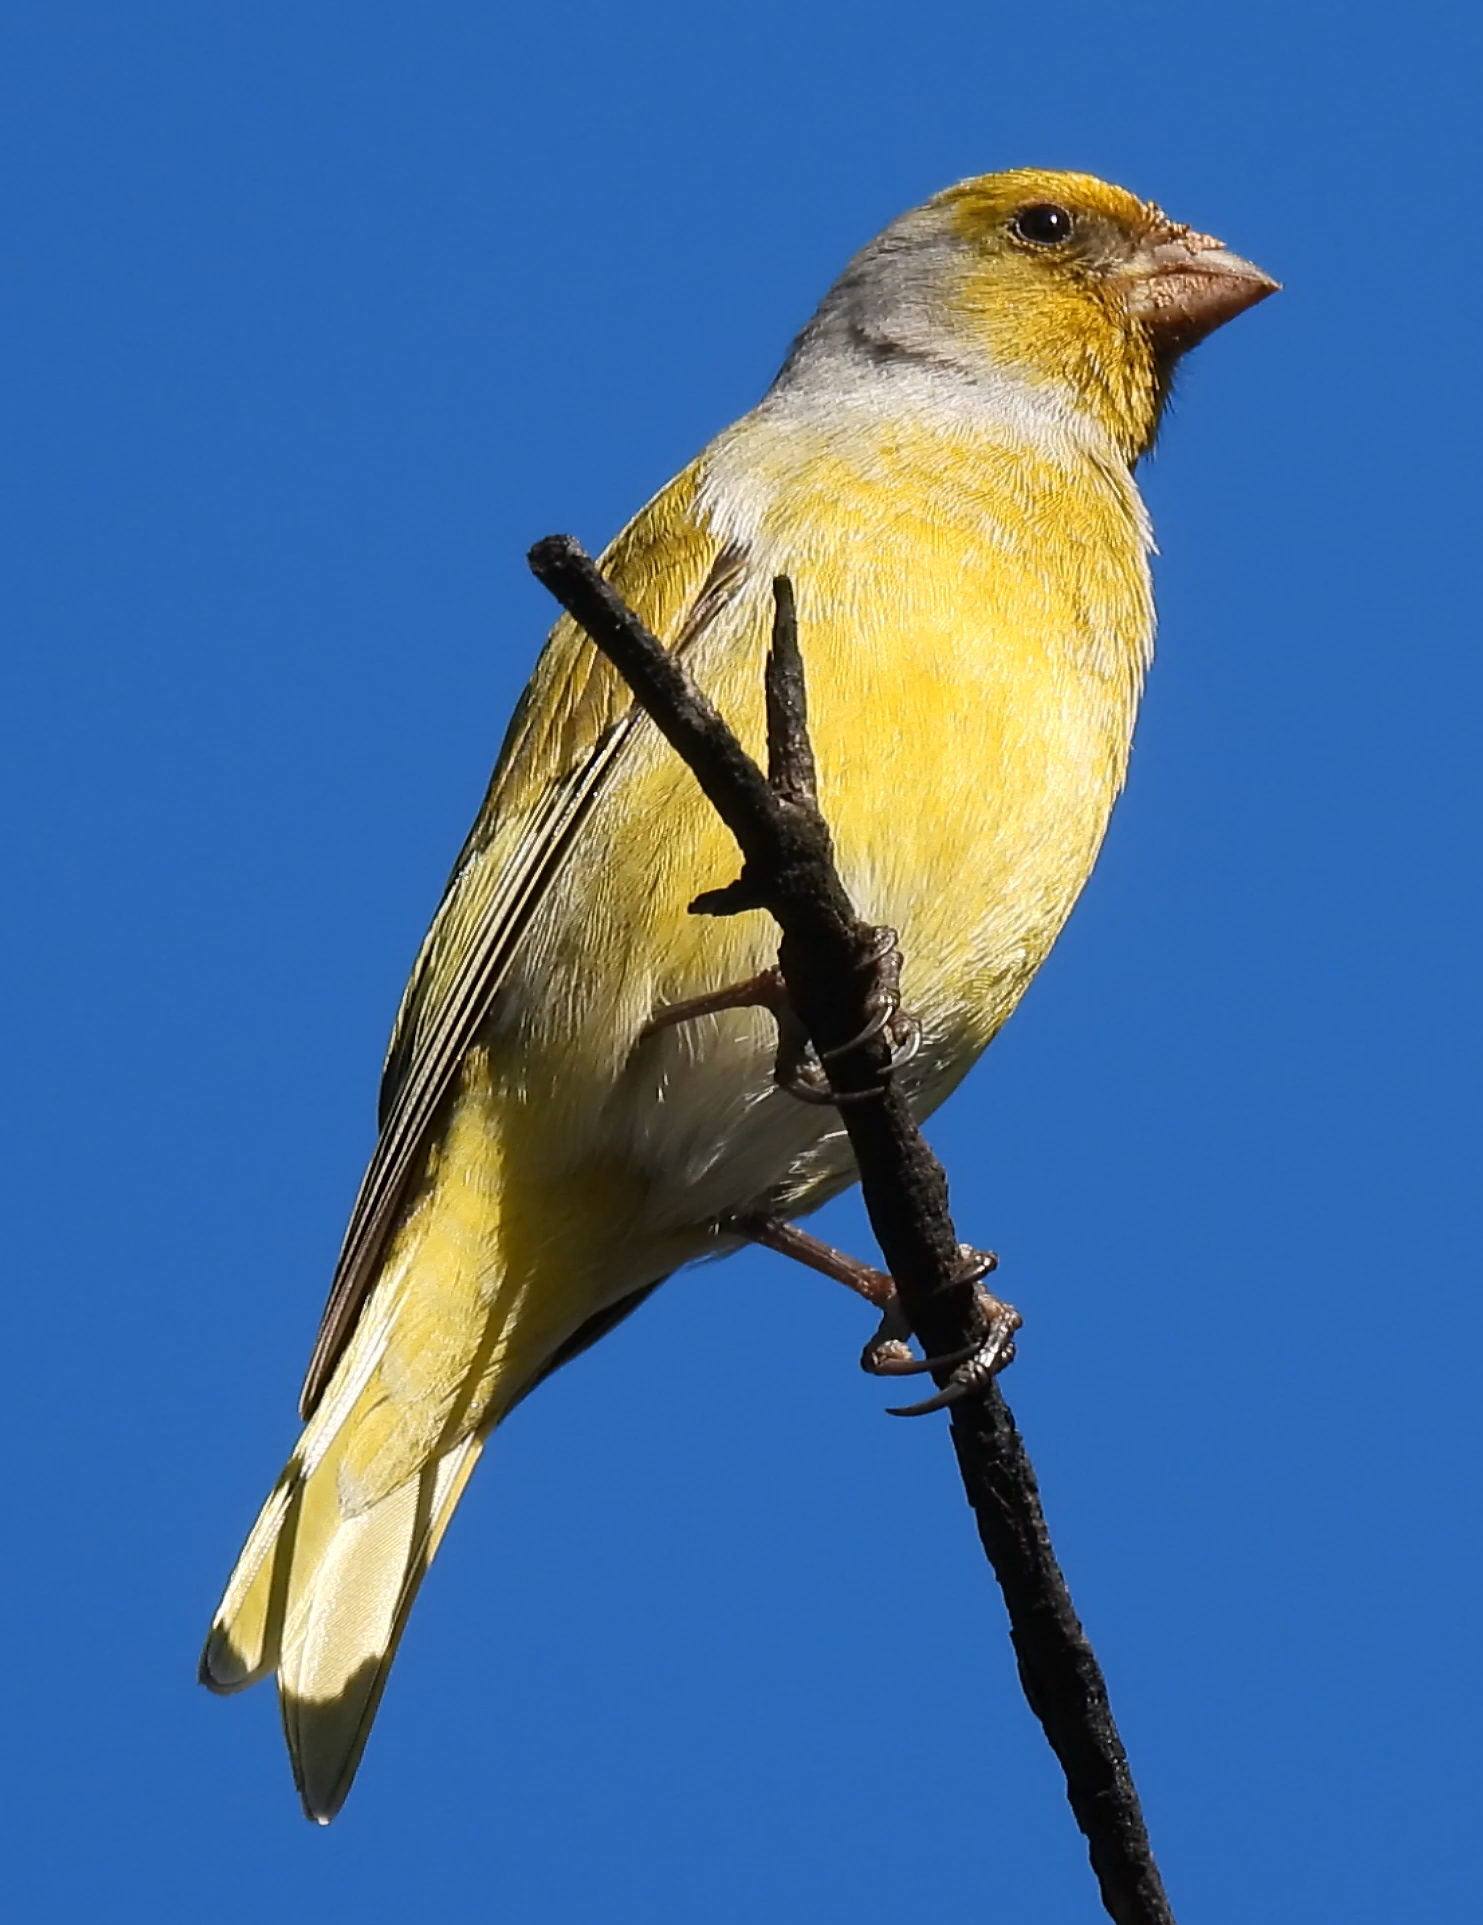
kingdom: Animalia
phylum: Chordata
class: Aves
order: Passeriformes
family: Fringillidae
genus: Serinus
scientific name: Serinus canicollis
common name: Cape canary
